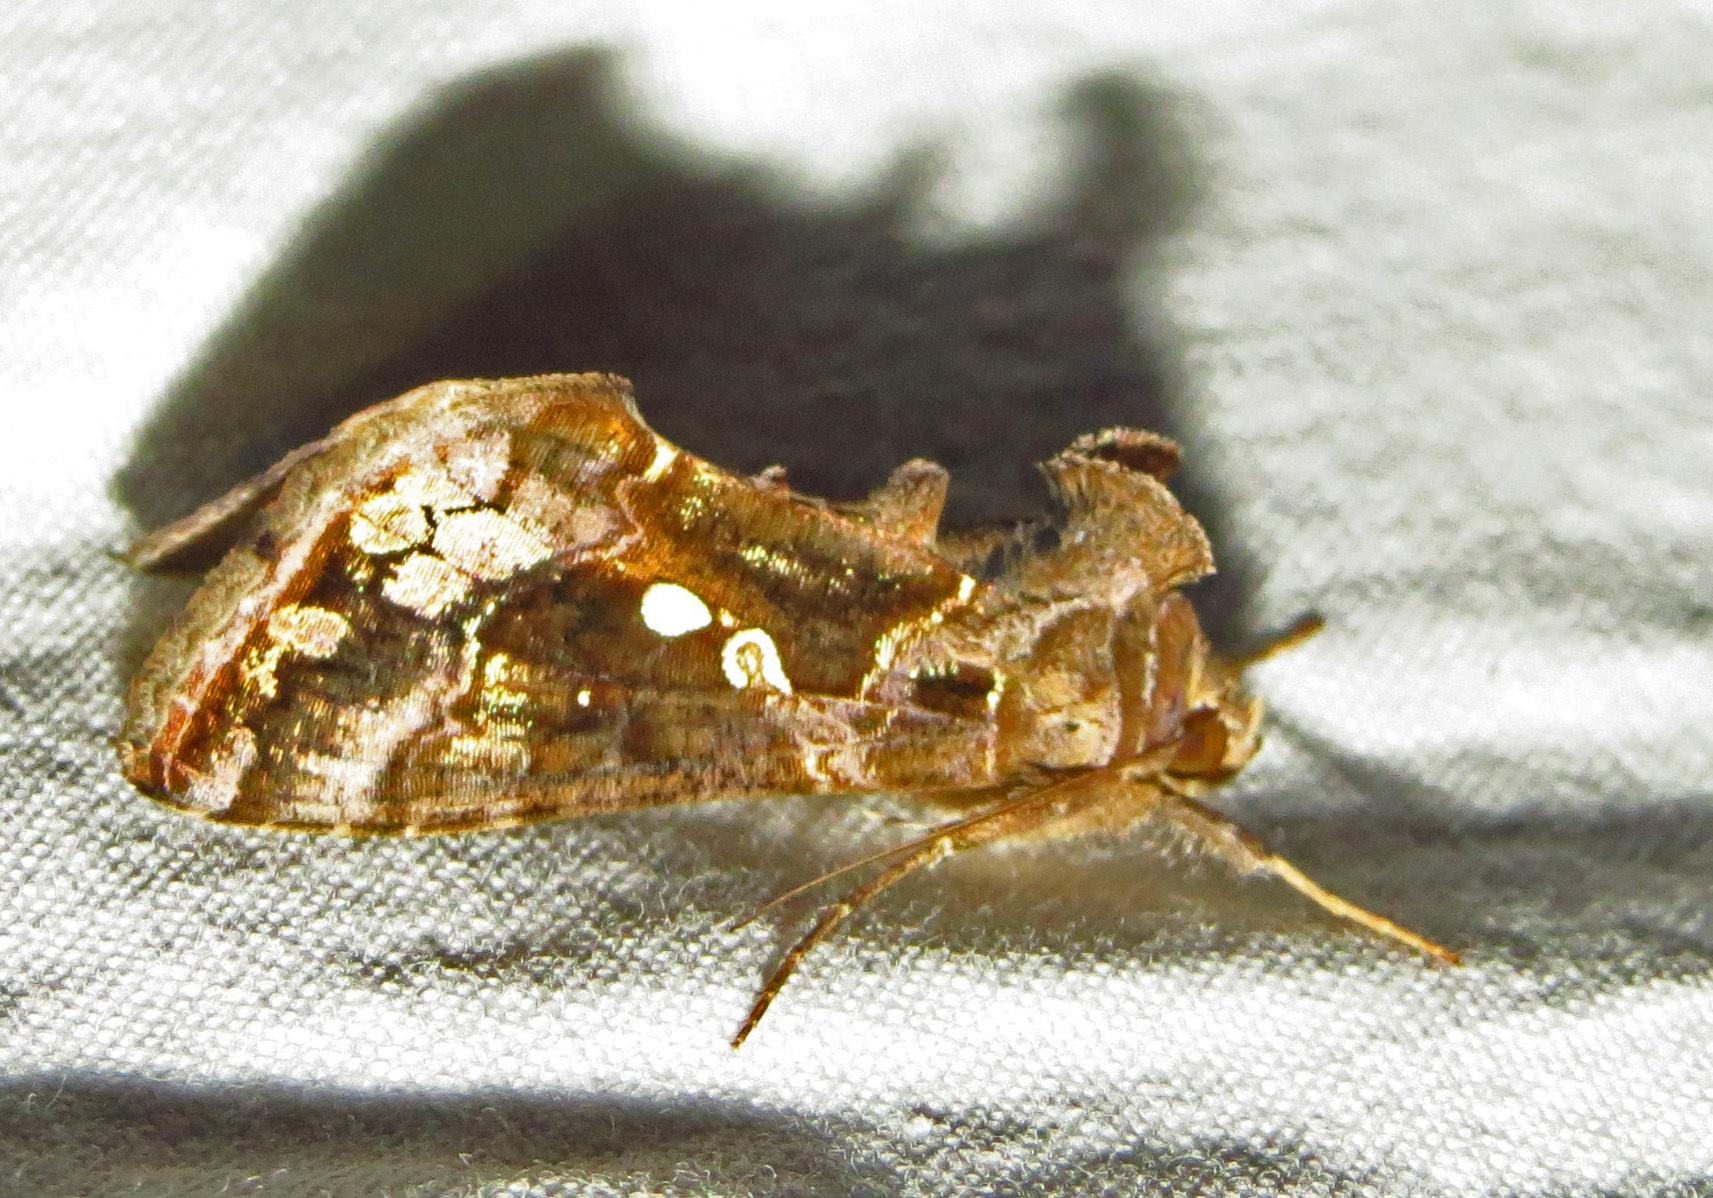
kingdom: Animalia
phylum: Arthropoda
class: Insecta
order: Lepidoptera
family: Noctuidae
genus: Chrysodeixis
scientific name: Chrysodeixis includens
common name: Cutworm moth
